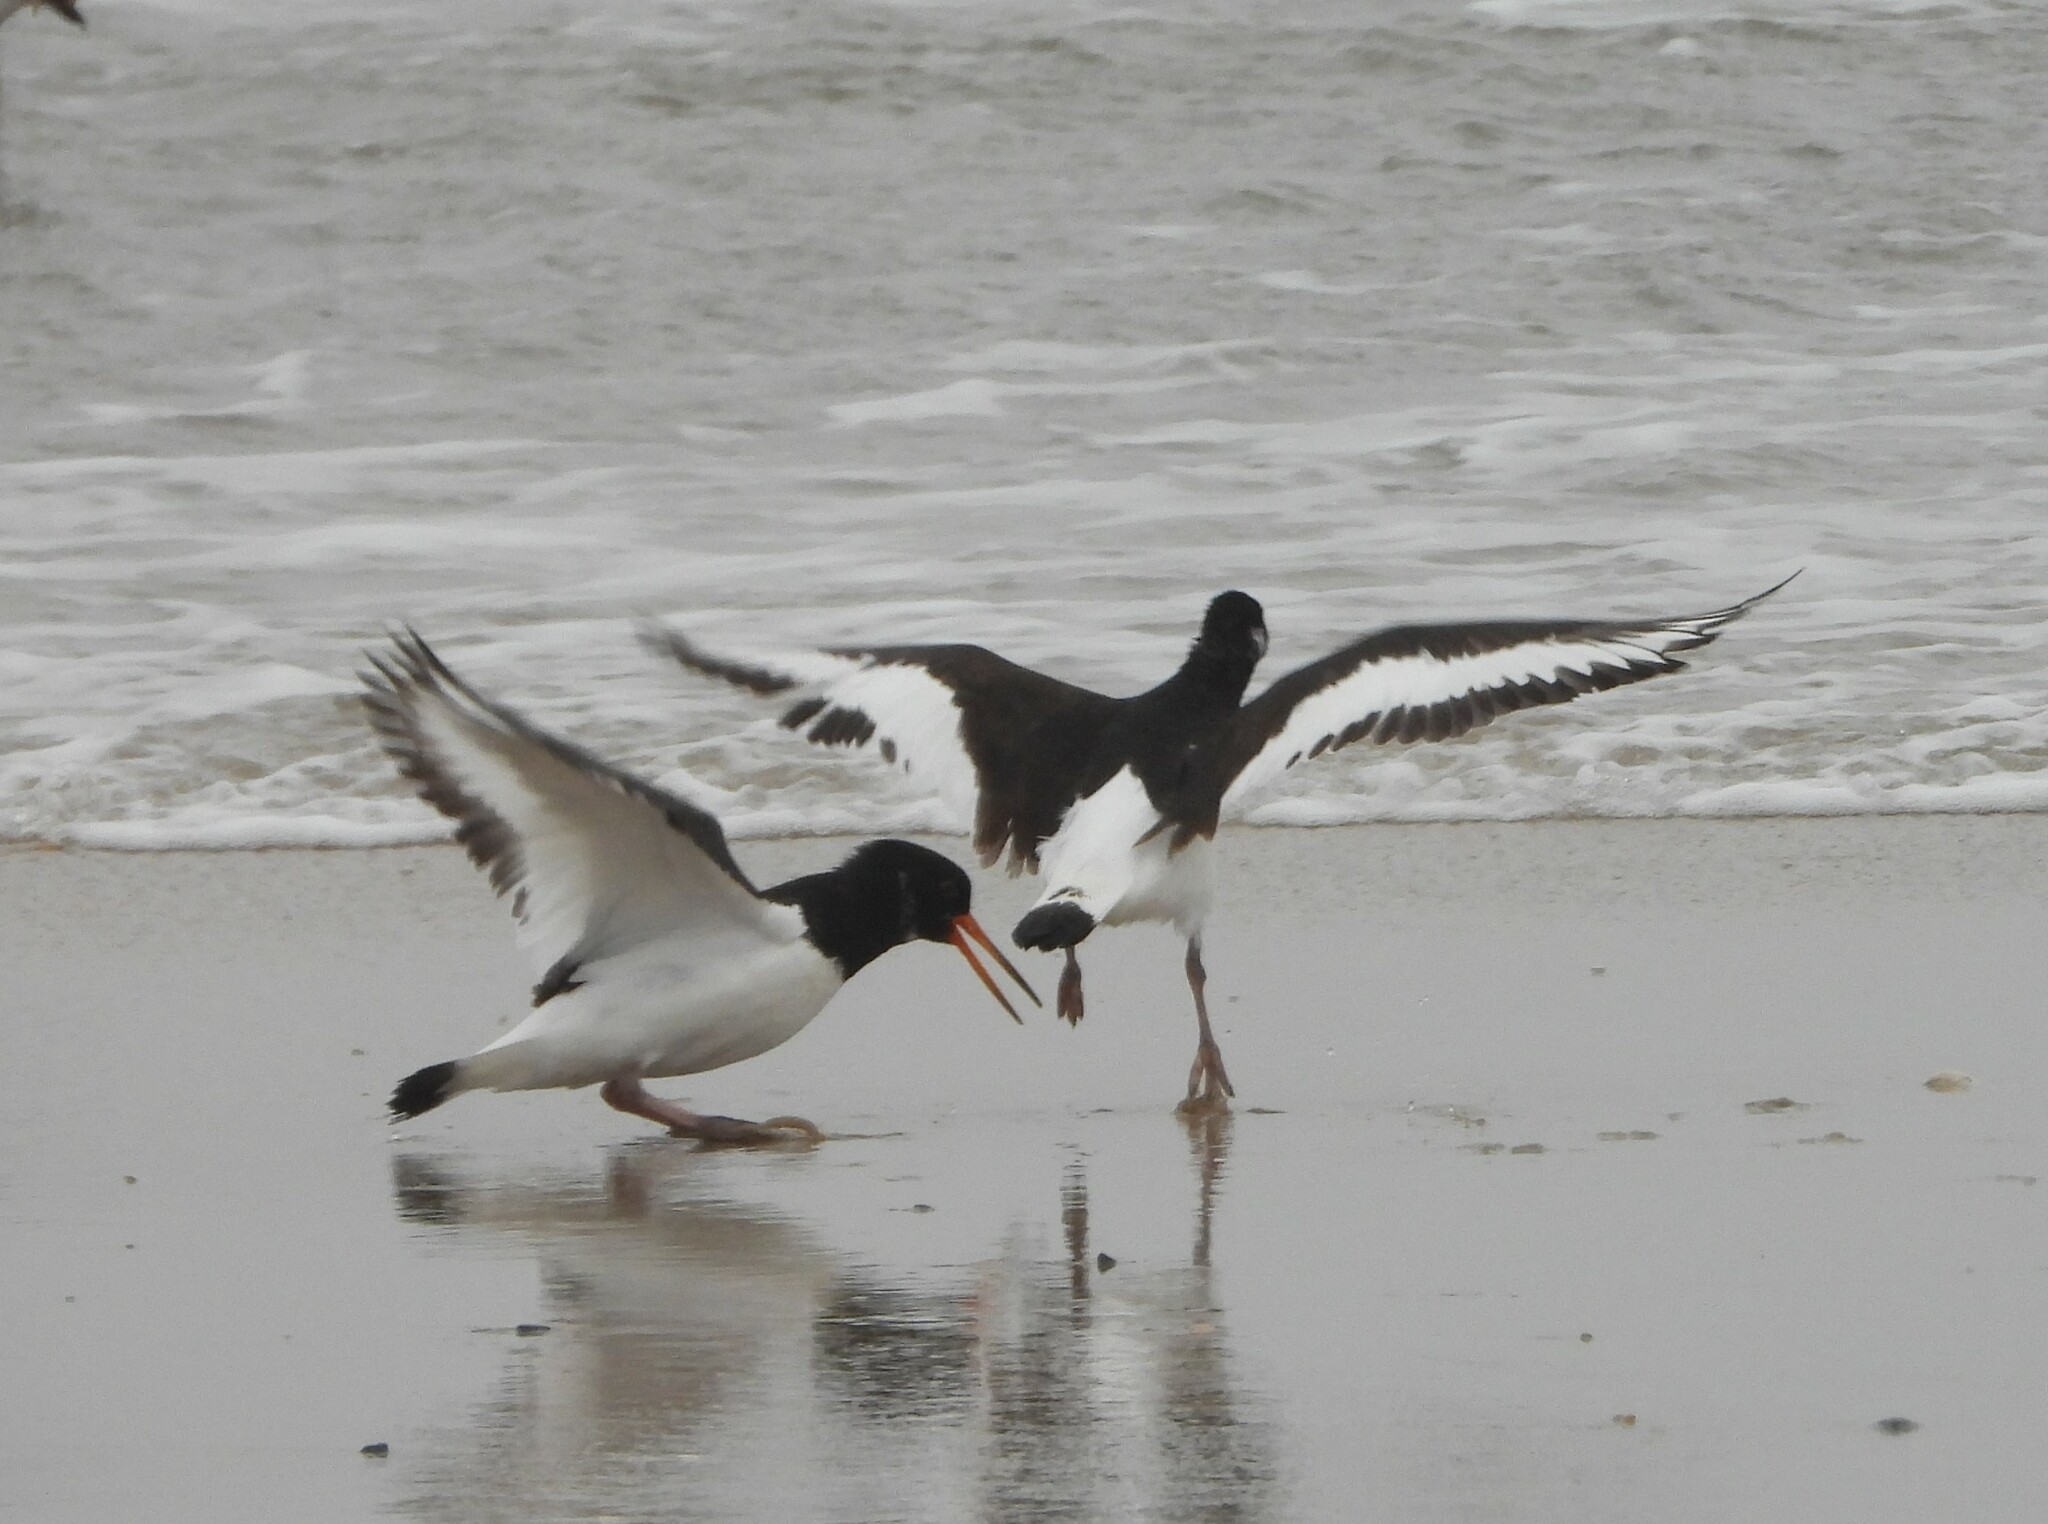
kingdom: Animalia
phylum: Chordata
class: Aves
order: Charadriiformes
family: Haematopodidae
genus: Haematopus
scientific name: Haematopus ostralegus
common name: Eurasian oystercatcher
